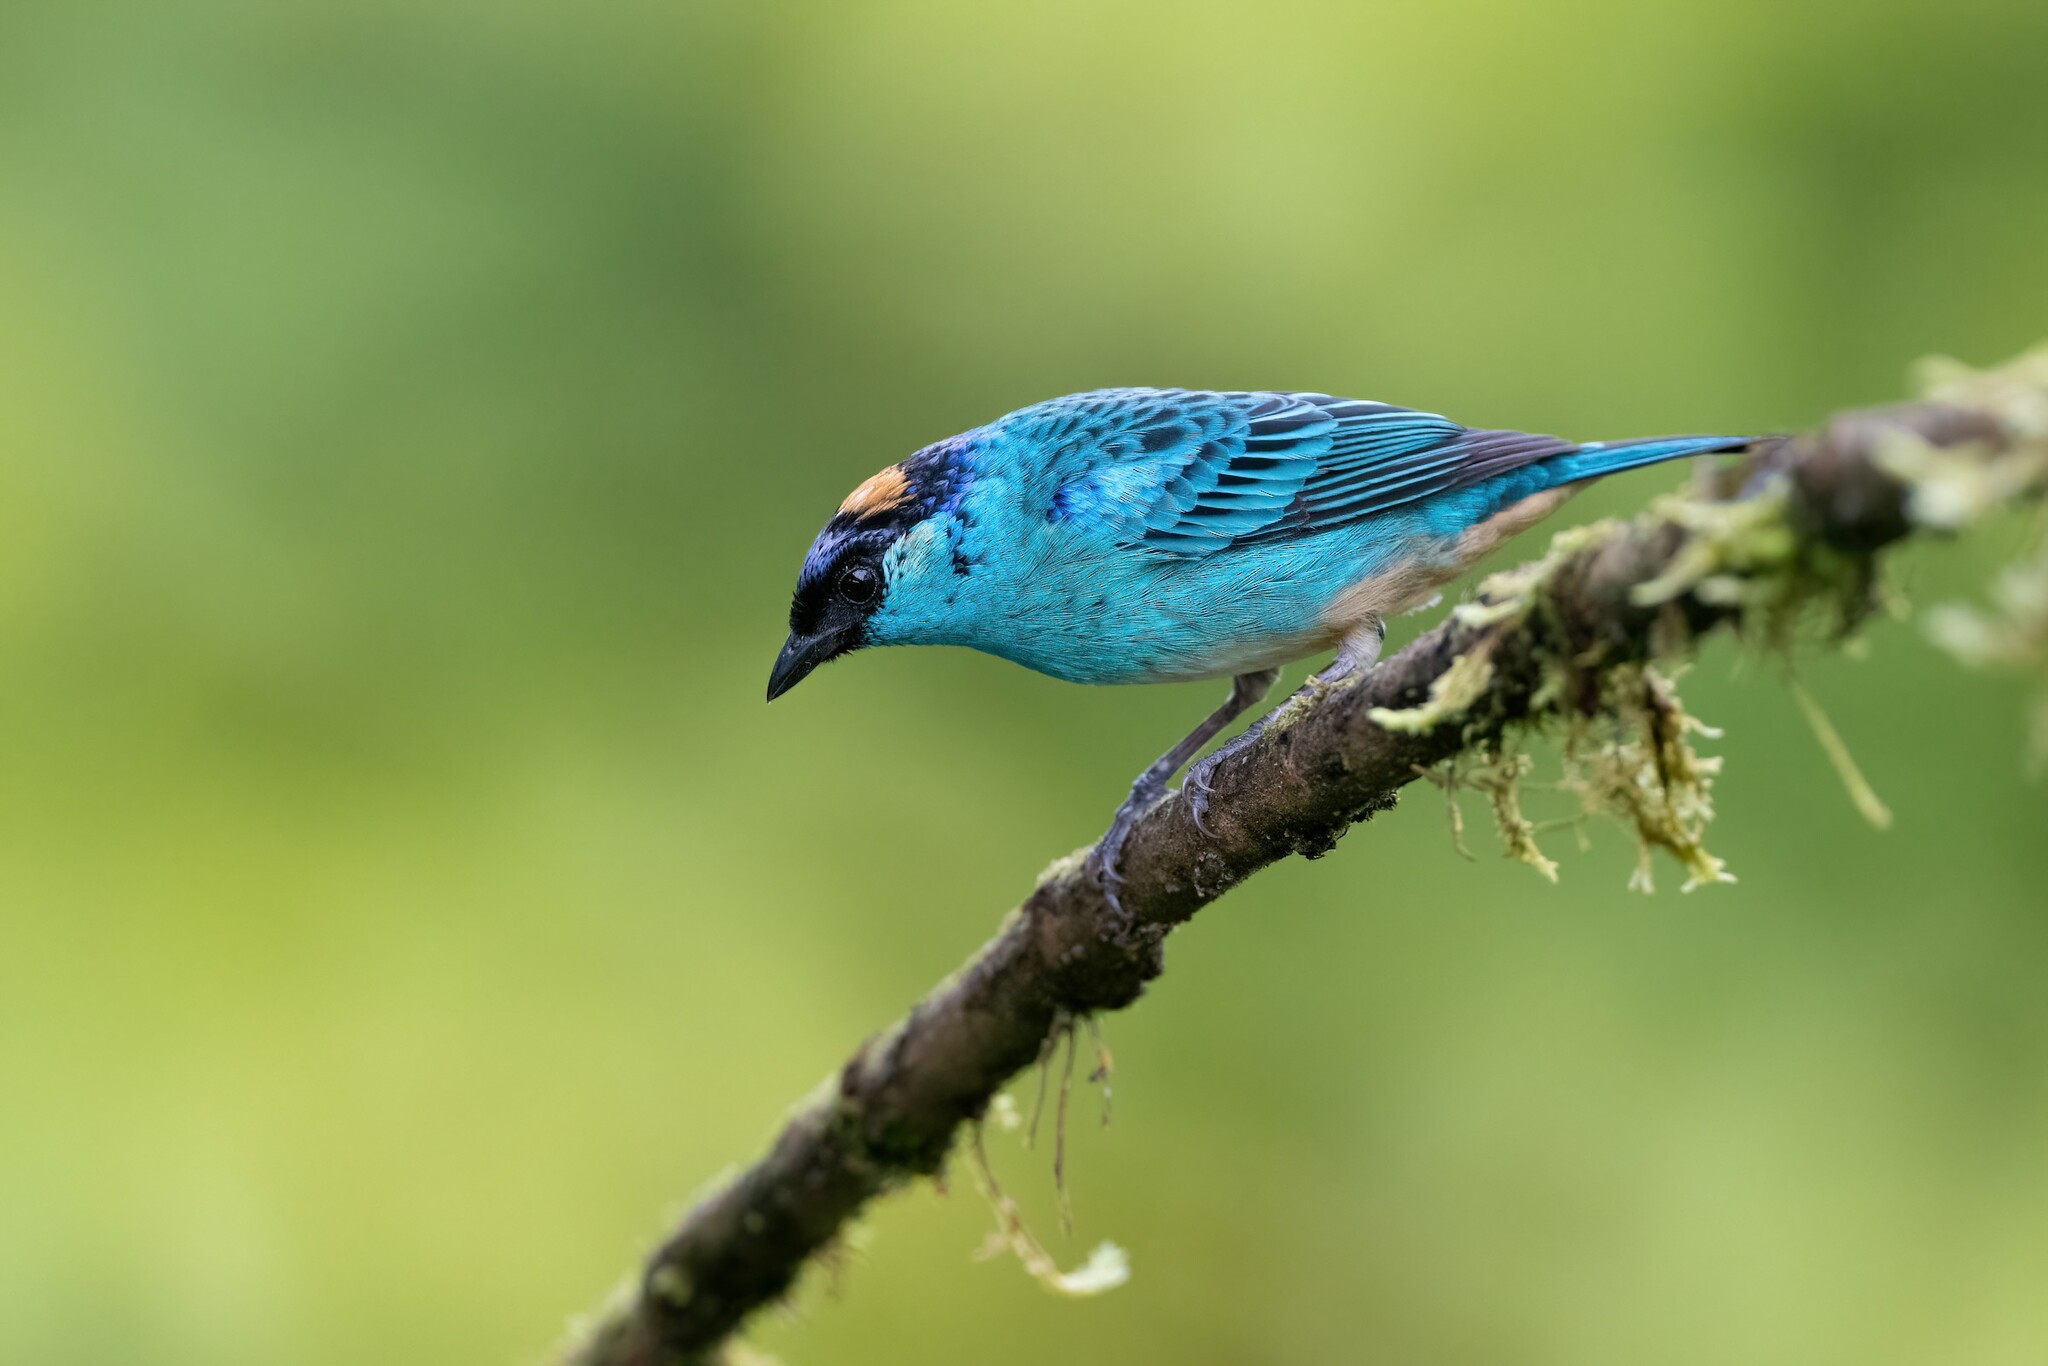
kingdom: Animalia
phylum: Chordata
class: Aves
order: Passeriformes
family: Thraupidae
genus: Chalcothraupis
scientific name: Chalcothraupis ruficervix
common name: Golden-naped tanager
